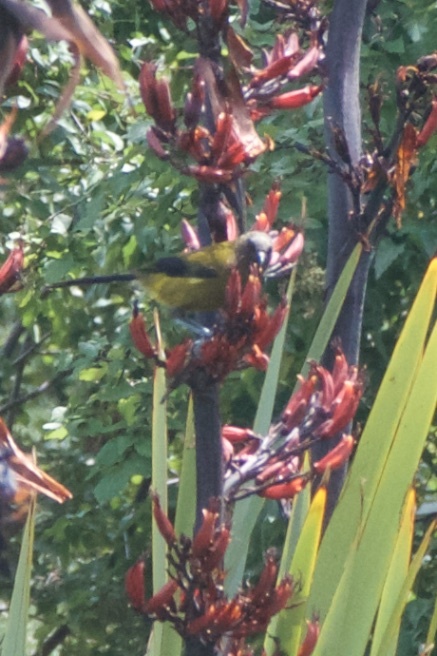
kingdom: Animalia
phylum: Chordata
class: Aves
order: Passeriformes
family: Meliphagidae
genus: Anthornis
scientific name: Anthornis melanura
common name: New zealand bellbird
